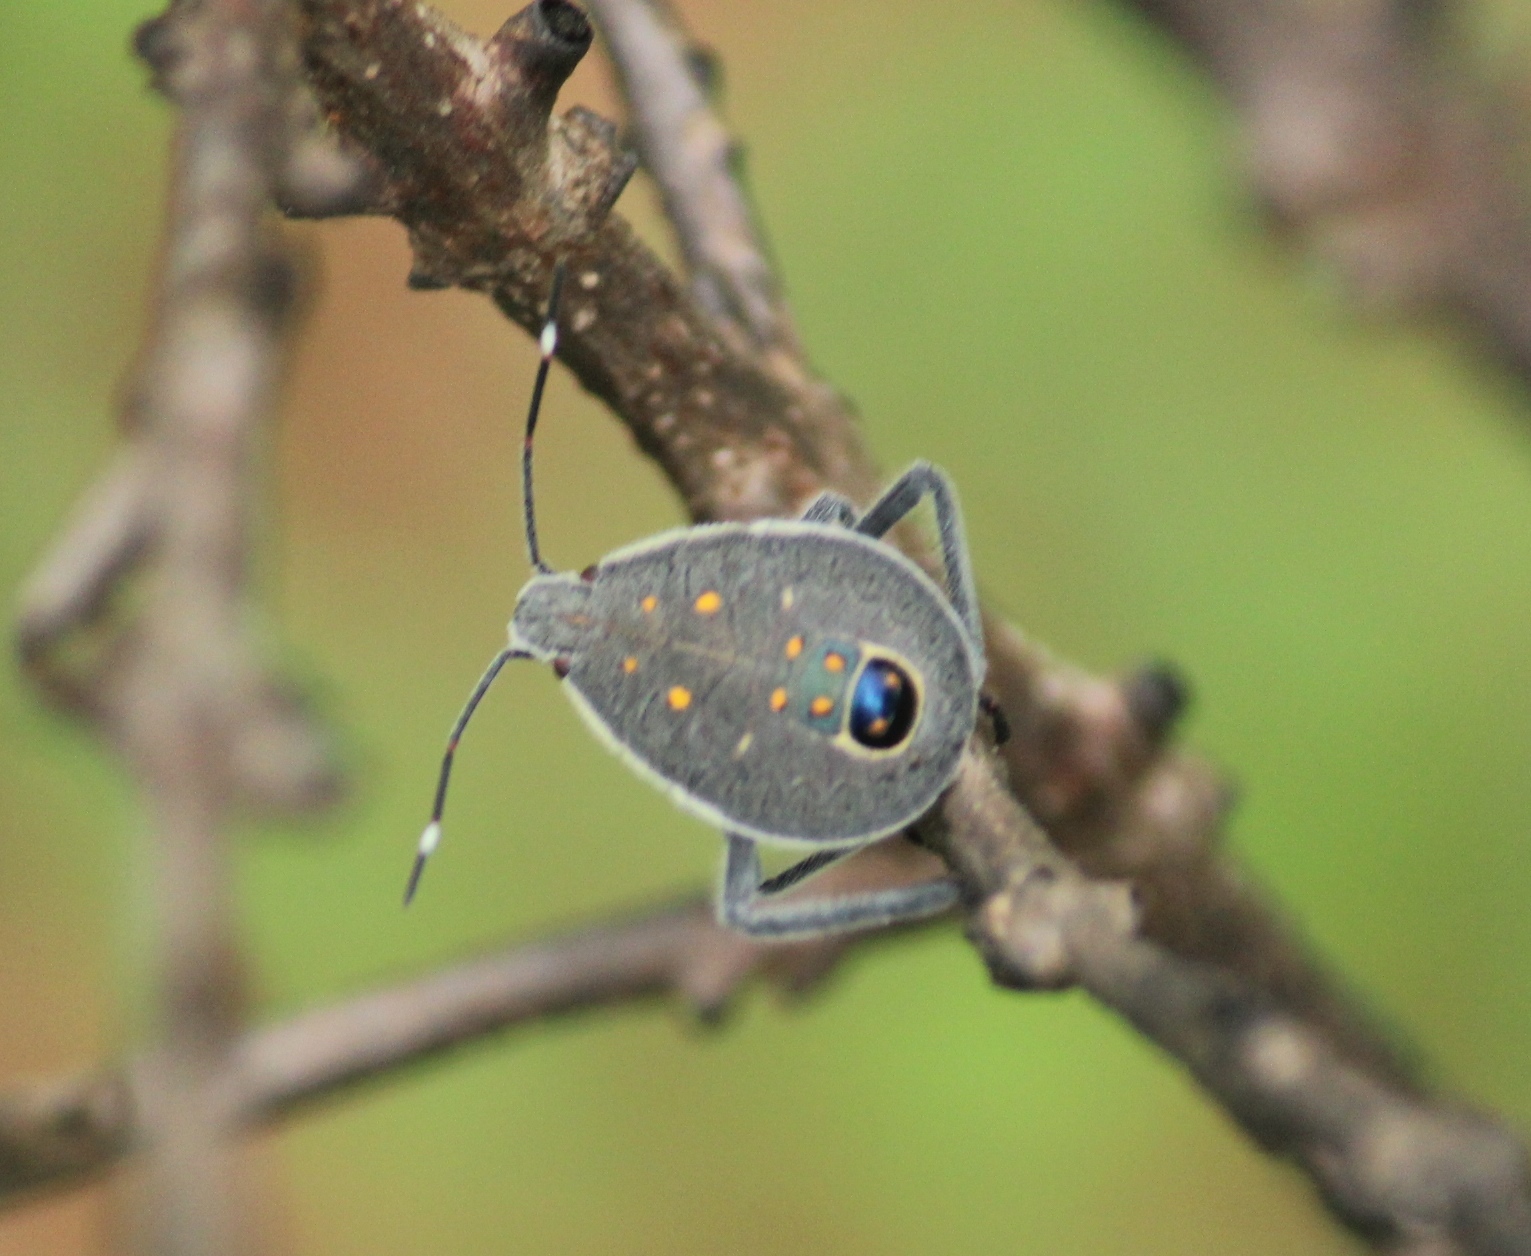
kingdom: Animalia
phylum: Arthropoda
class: Insecta
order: Hemiptera
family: Pentatomidae
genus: Erthesina
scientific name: Erthesina acuminata
